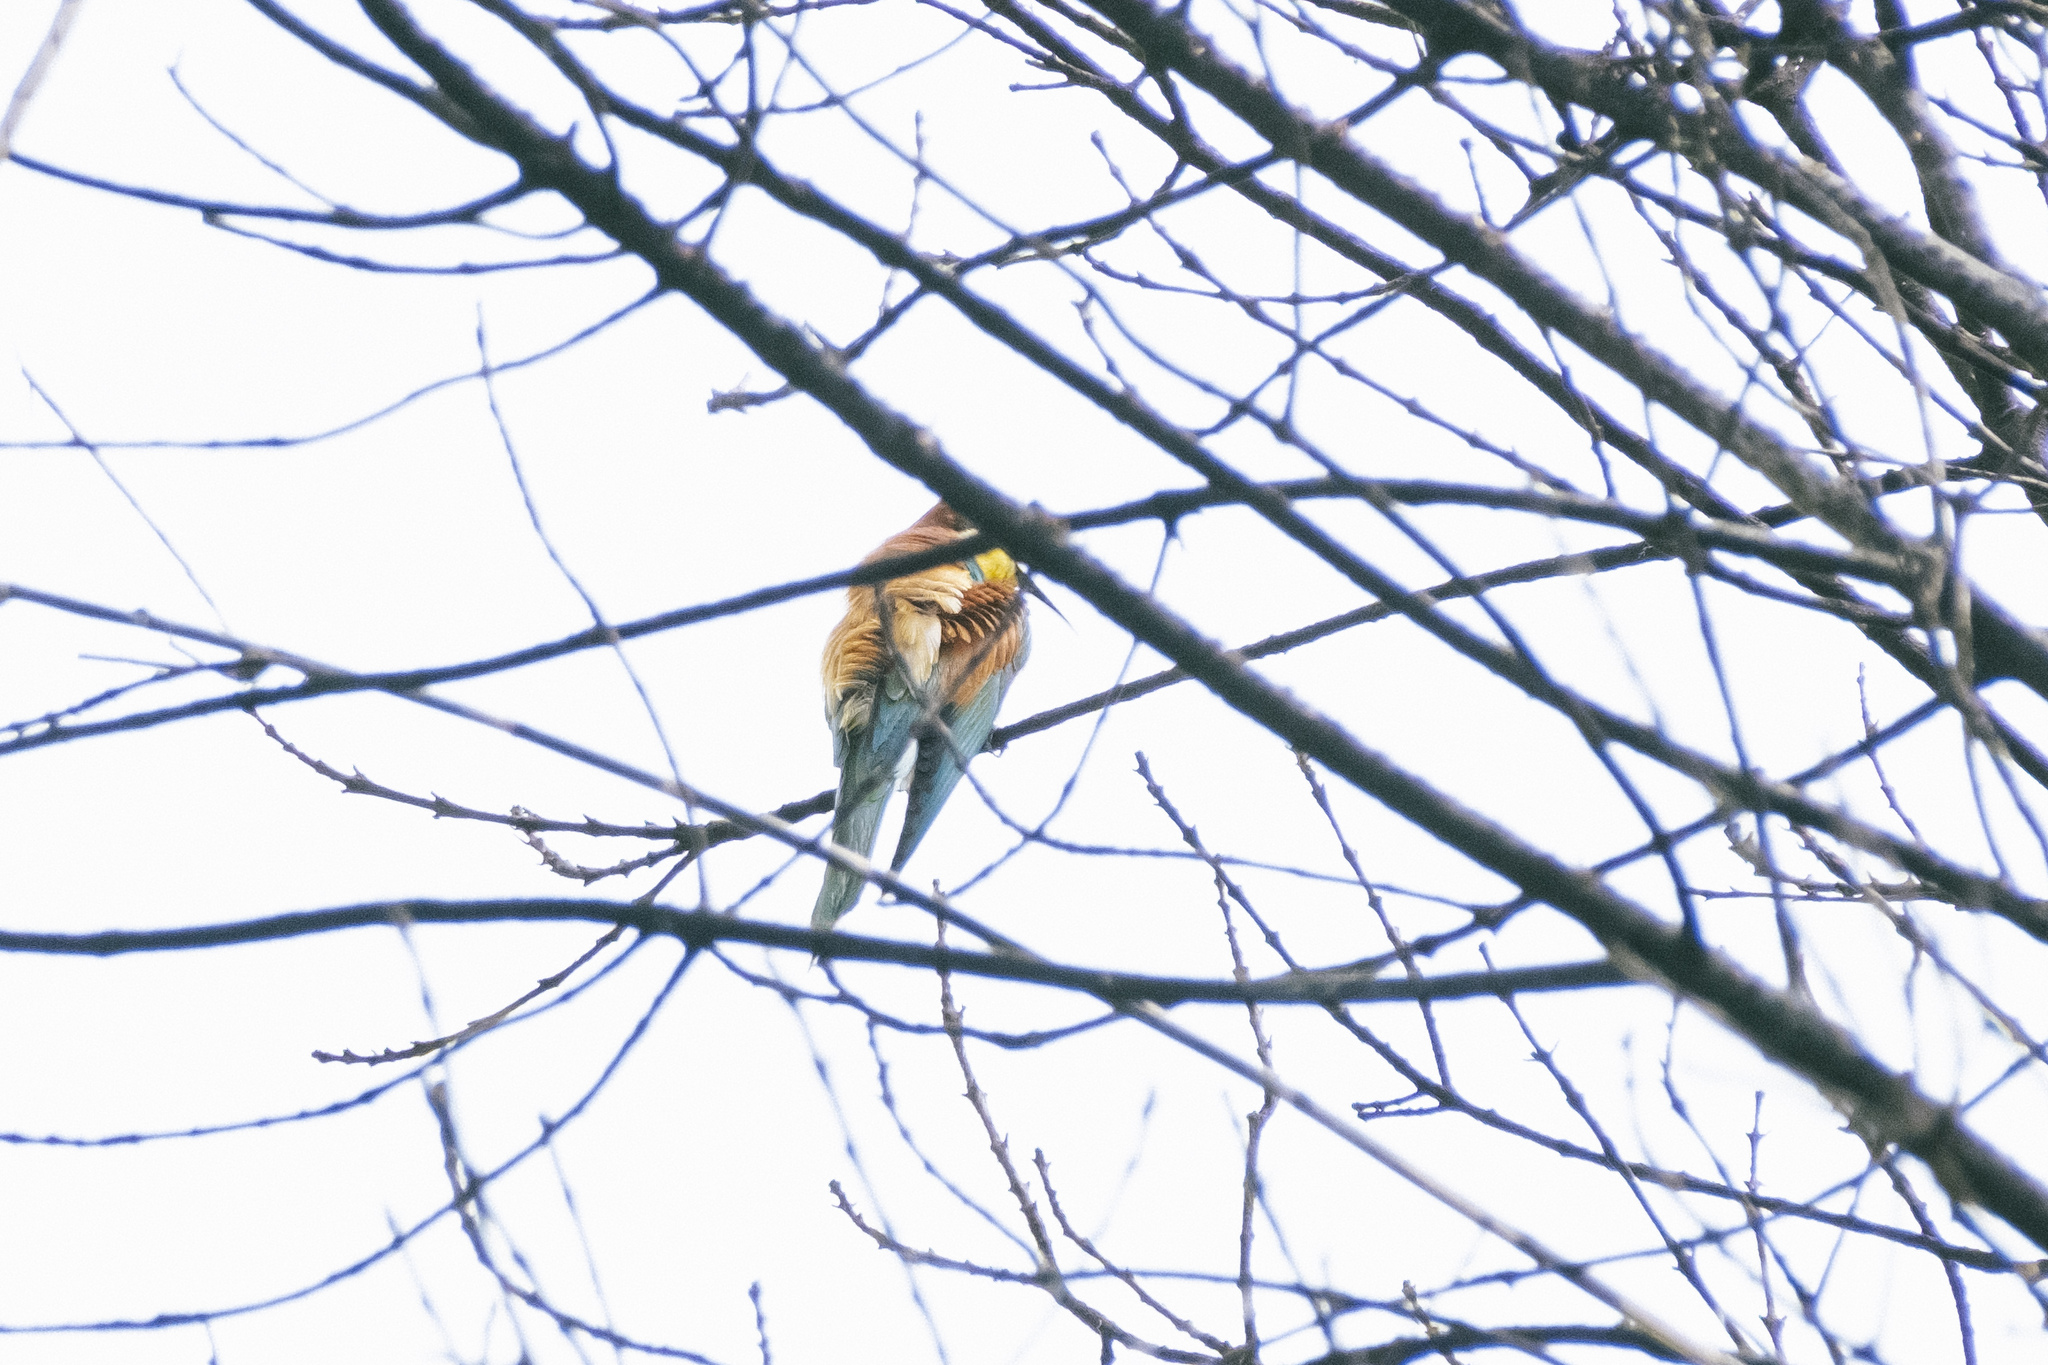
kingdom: Animalia
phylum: Chordata
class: Aves
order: Coraciiformes
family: Meropidae
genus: Merops
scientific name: Merops apiaster
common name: European bee-eater
